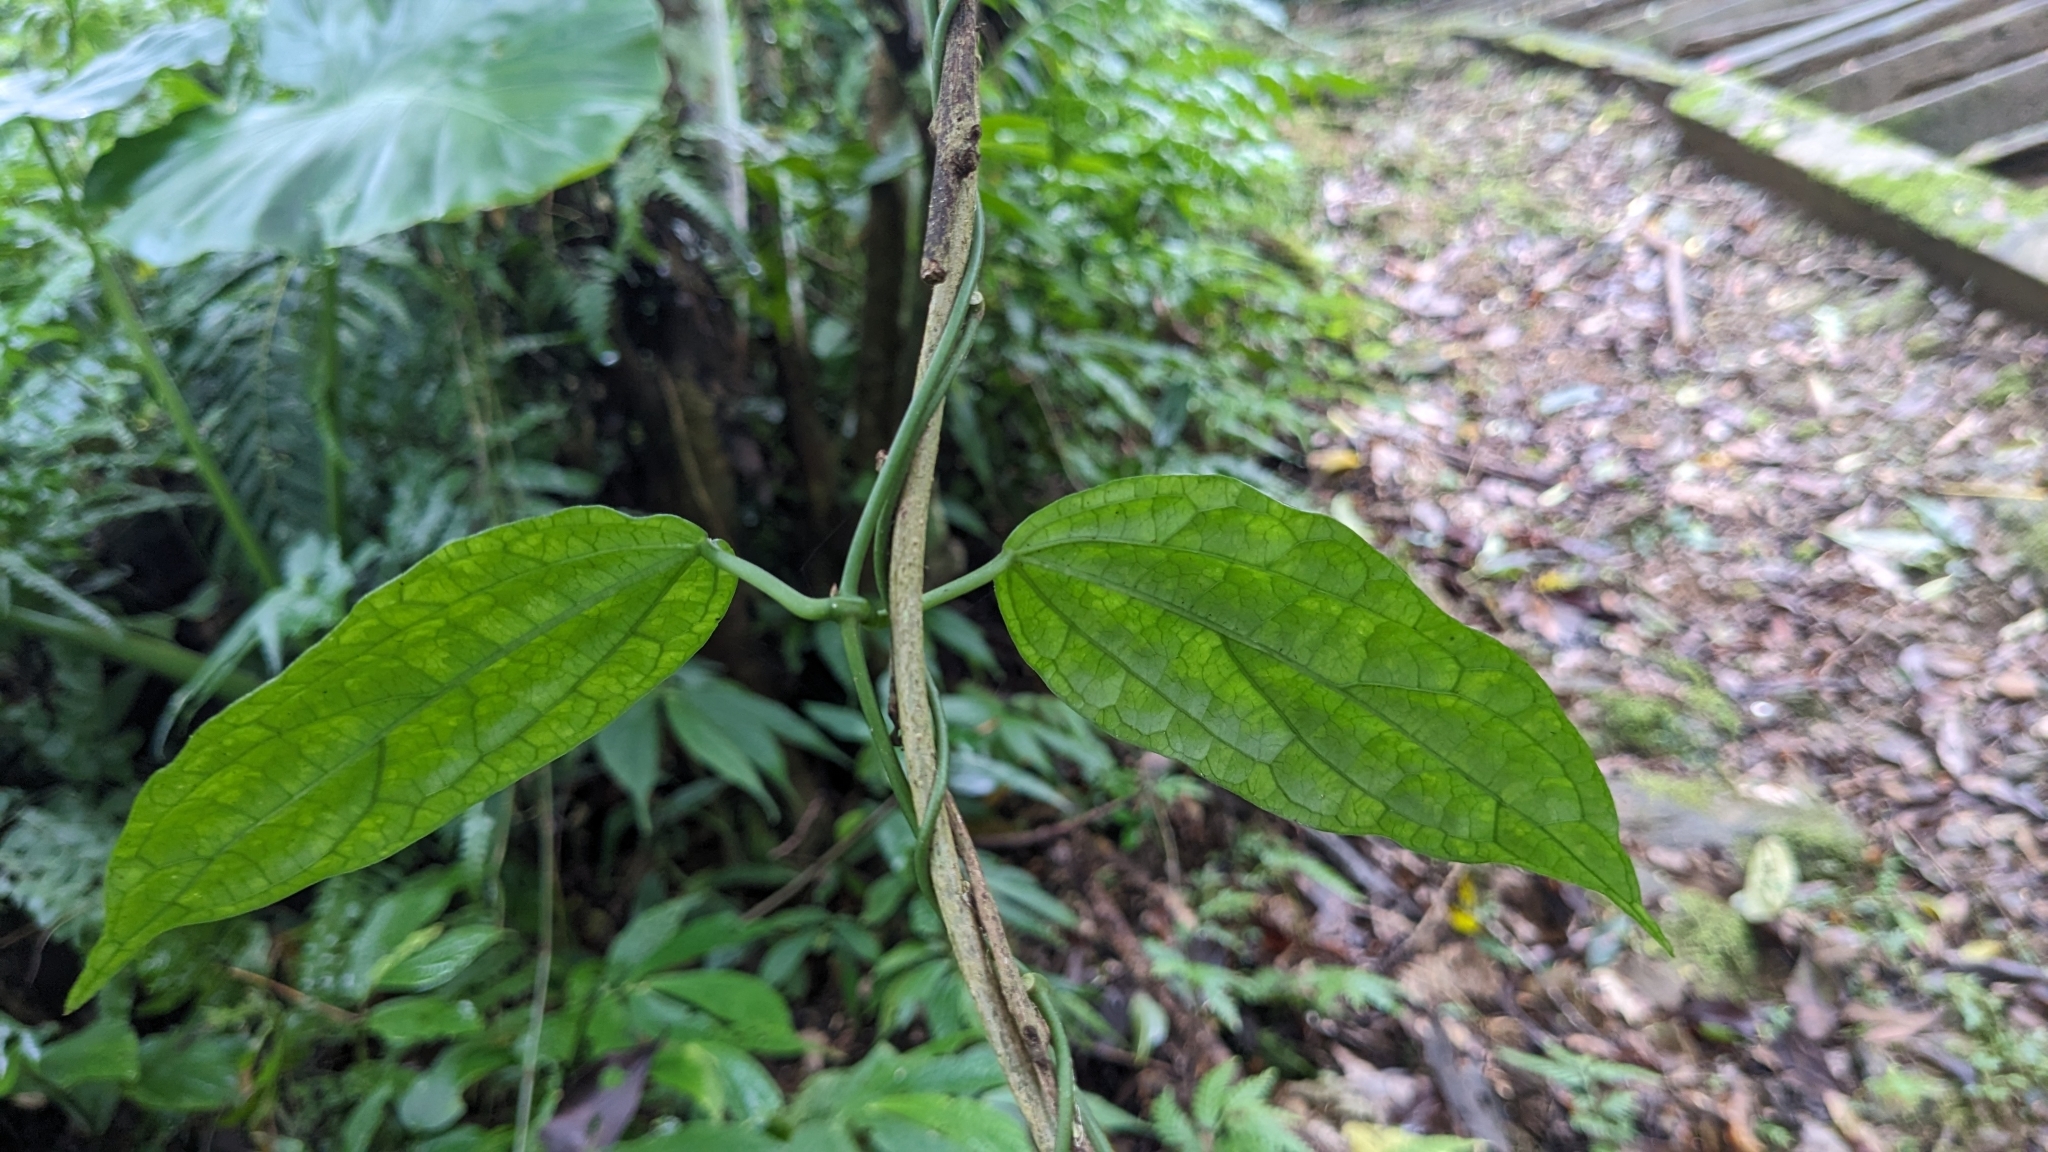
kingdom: Plantae
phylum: Tracheophyta
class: Magnoliopsida
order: Gentianales
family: Apocynaceae
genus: Heterostemma
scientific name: Heterostemma brownii
